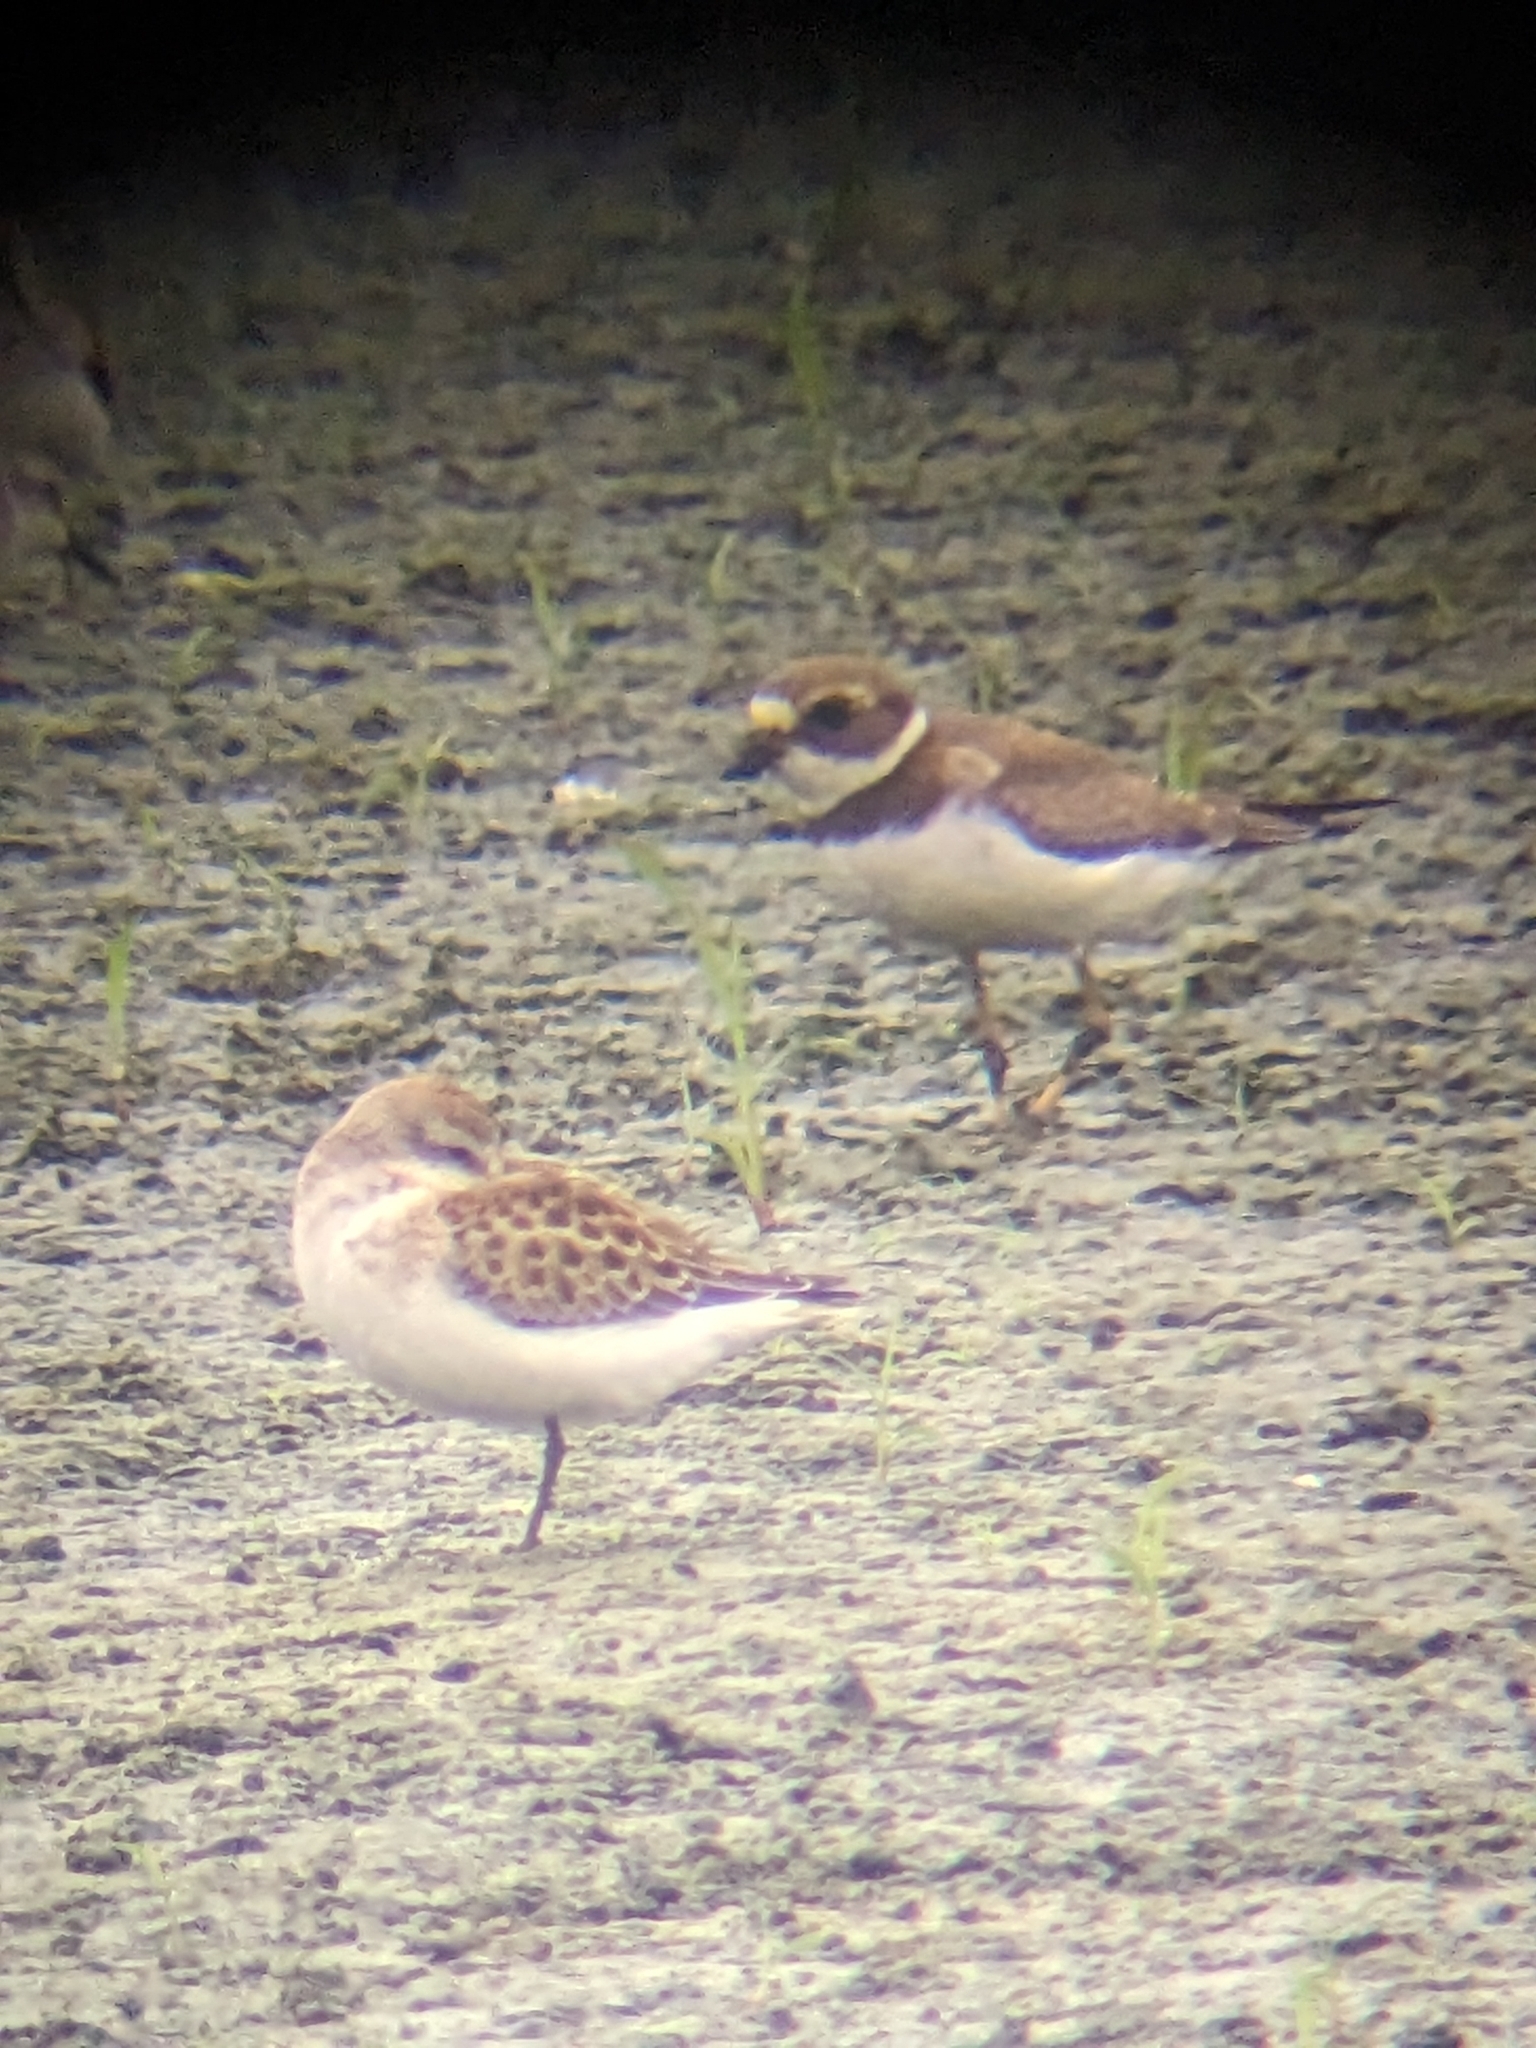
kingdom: Animalia
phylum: Chordata
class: Aves
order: Charadriiformes
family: Charadriidae
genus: Charadrius
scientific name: Charadrius semipalmatus
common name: Semipalmated plover
